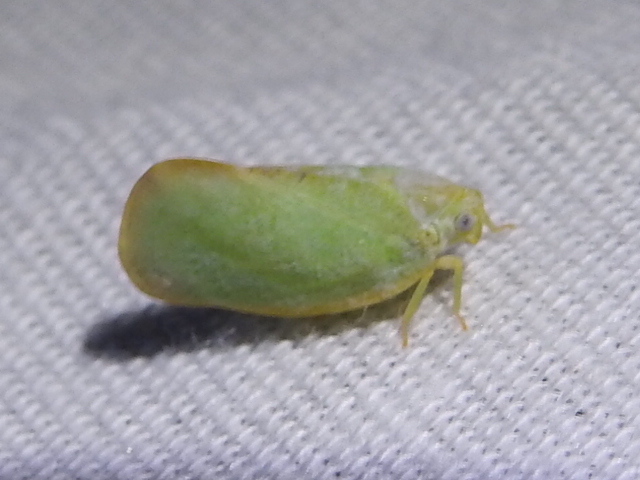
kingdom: Animalia
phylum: Arthropoda
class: Insecta
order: Hemiptera
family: Flatidae
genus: Ormenoides
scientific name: Ormenoides venusta
